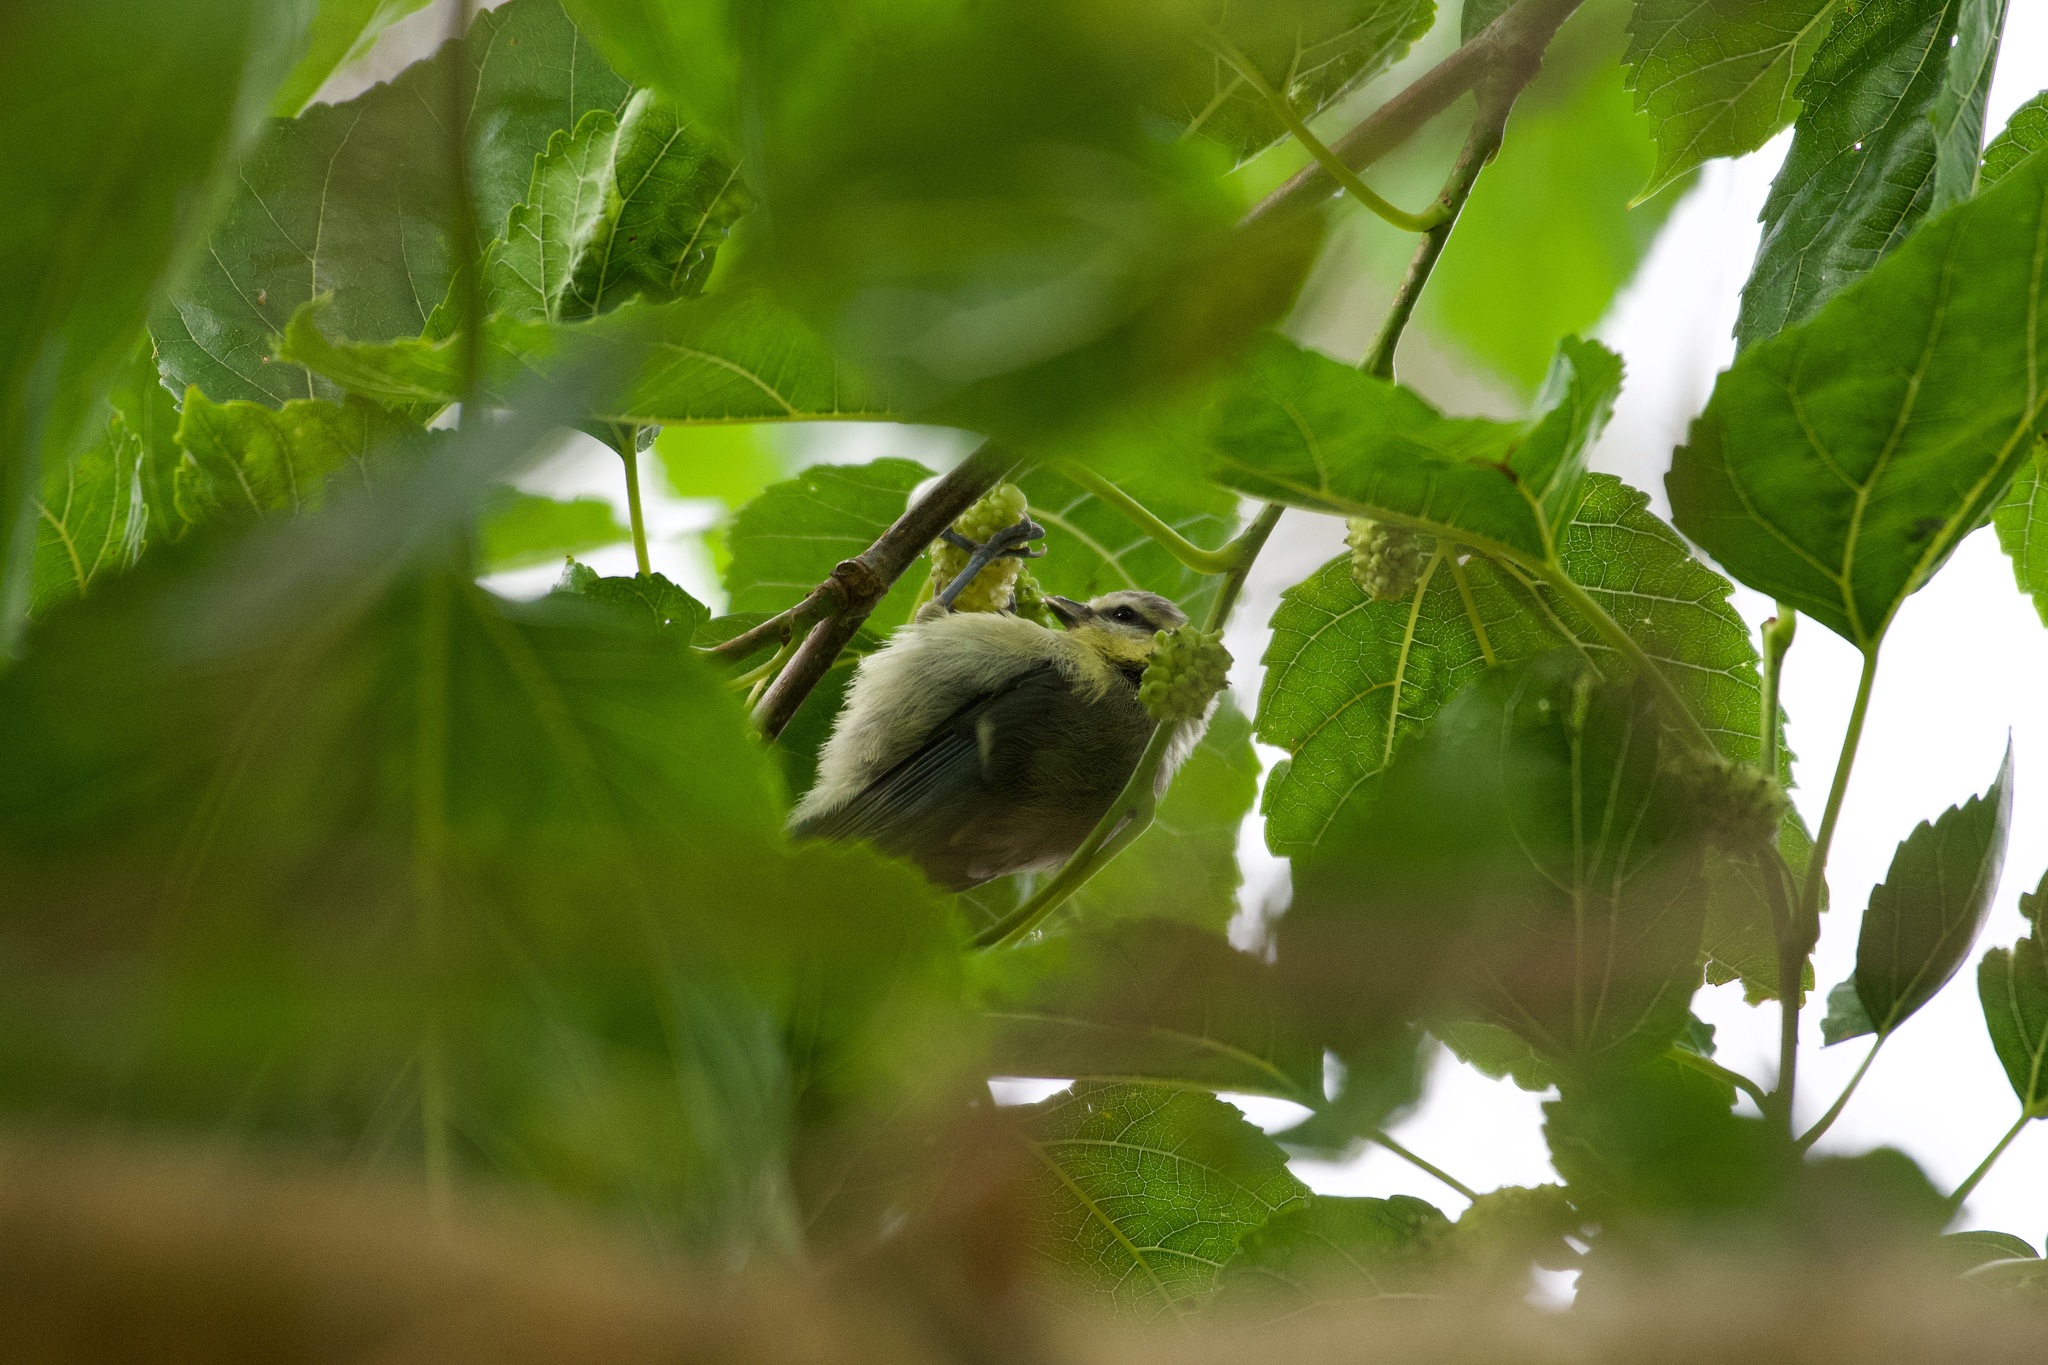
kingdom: Animalia
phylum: Chordata
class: Aves
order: Passeriformes
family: Paridae
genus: Cyanistes
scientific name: Cyanistes caeruleus
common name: Eurasian blue tit
